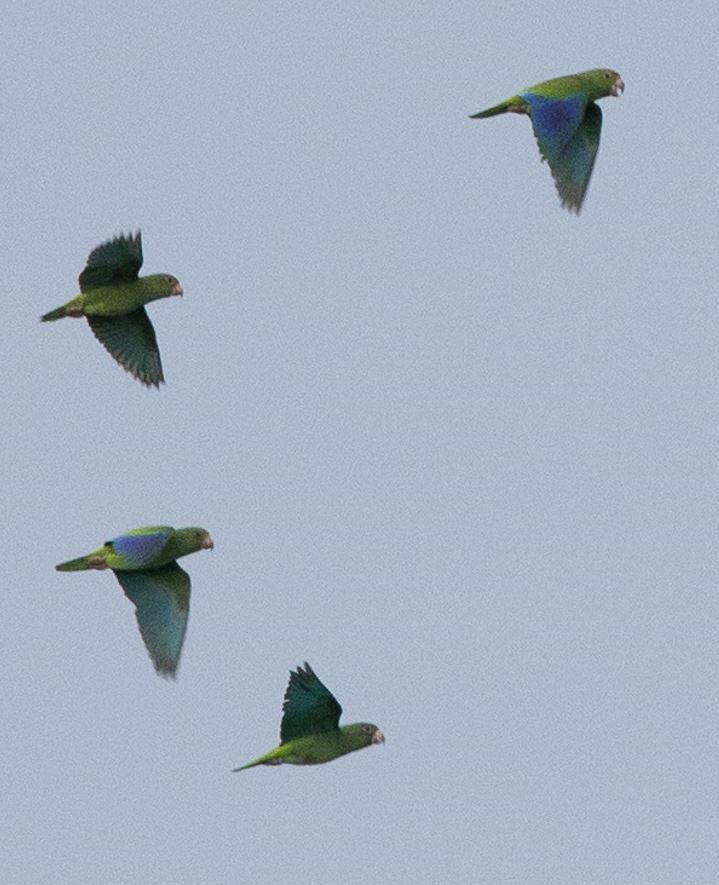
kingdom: Animalia
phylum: Chordata
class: Aves
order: Psittaciformes
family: Psittacidae
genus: Brotogeris
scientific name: Brotogeris cyanoptera
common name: Cobalt-winged parakeet
